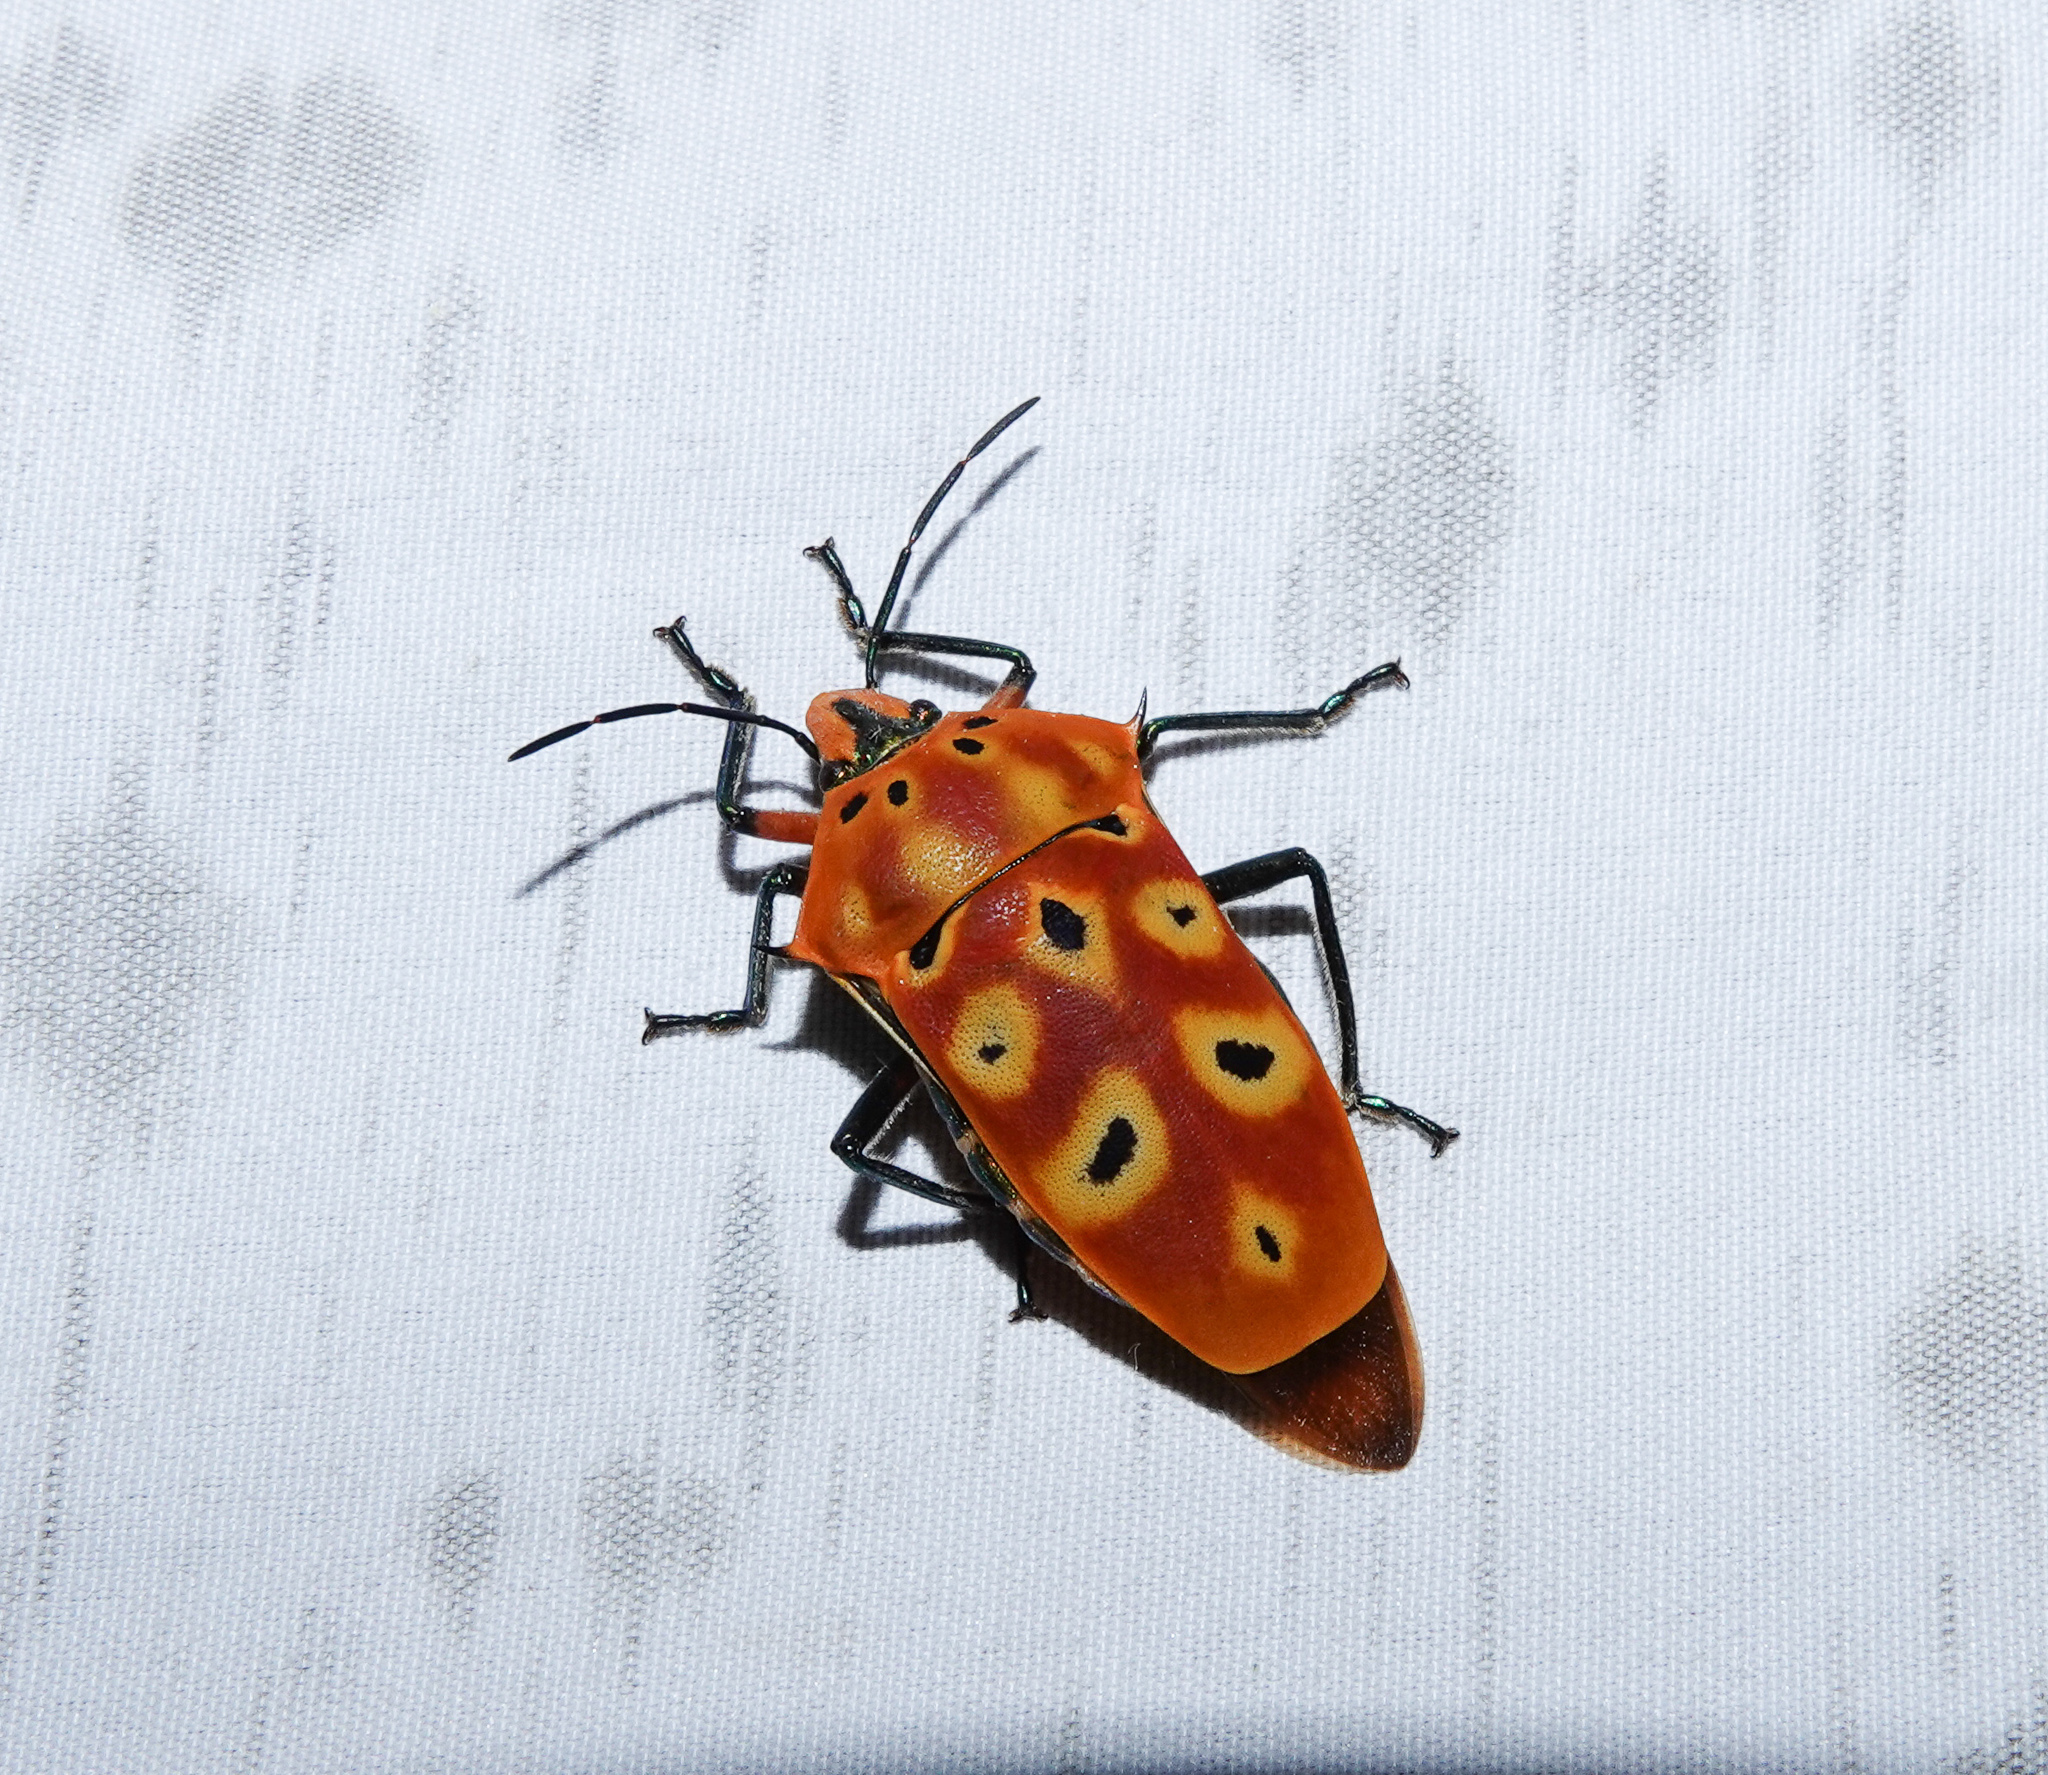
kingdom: Animalia
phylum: Arthropoda
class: Insecta
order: Hemiptera
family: Scutelleridae
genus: Cantao
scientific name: Cantao ocellatus
